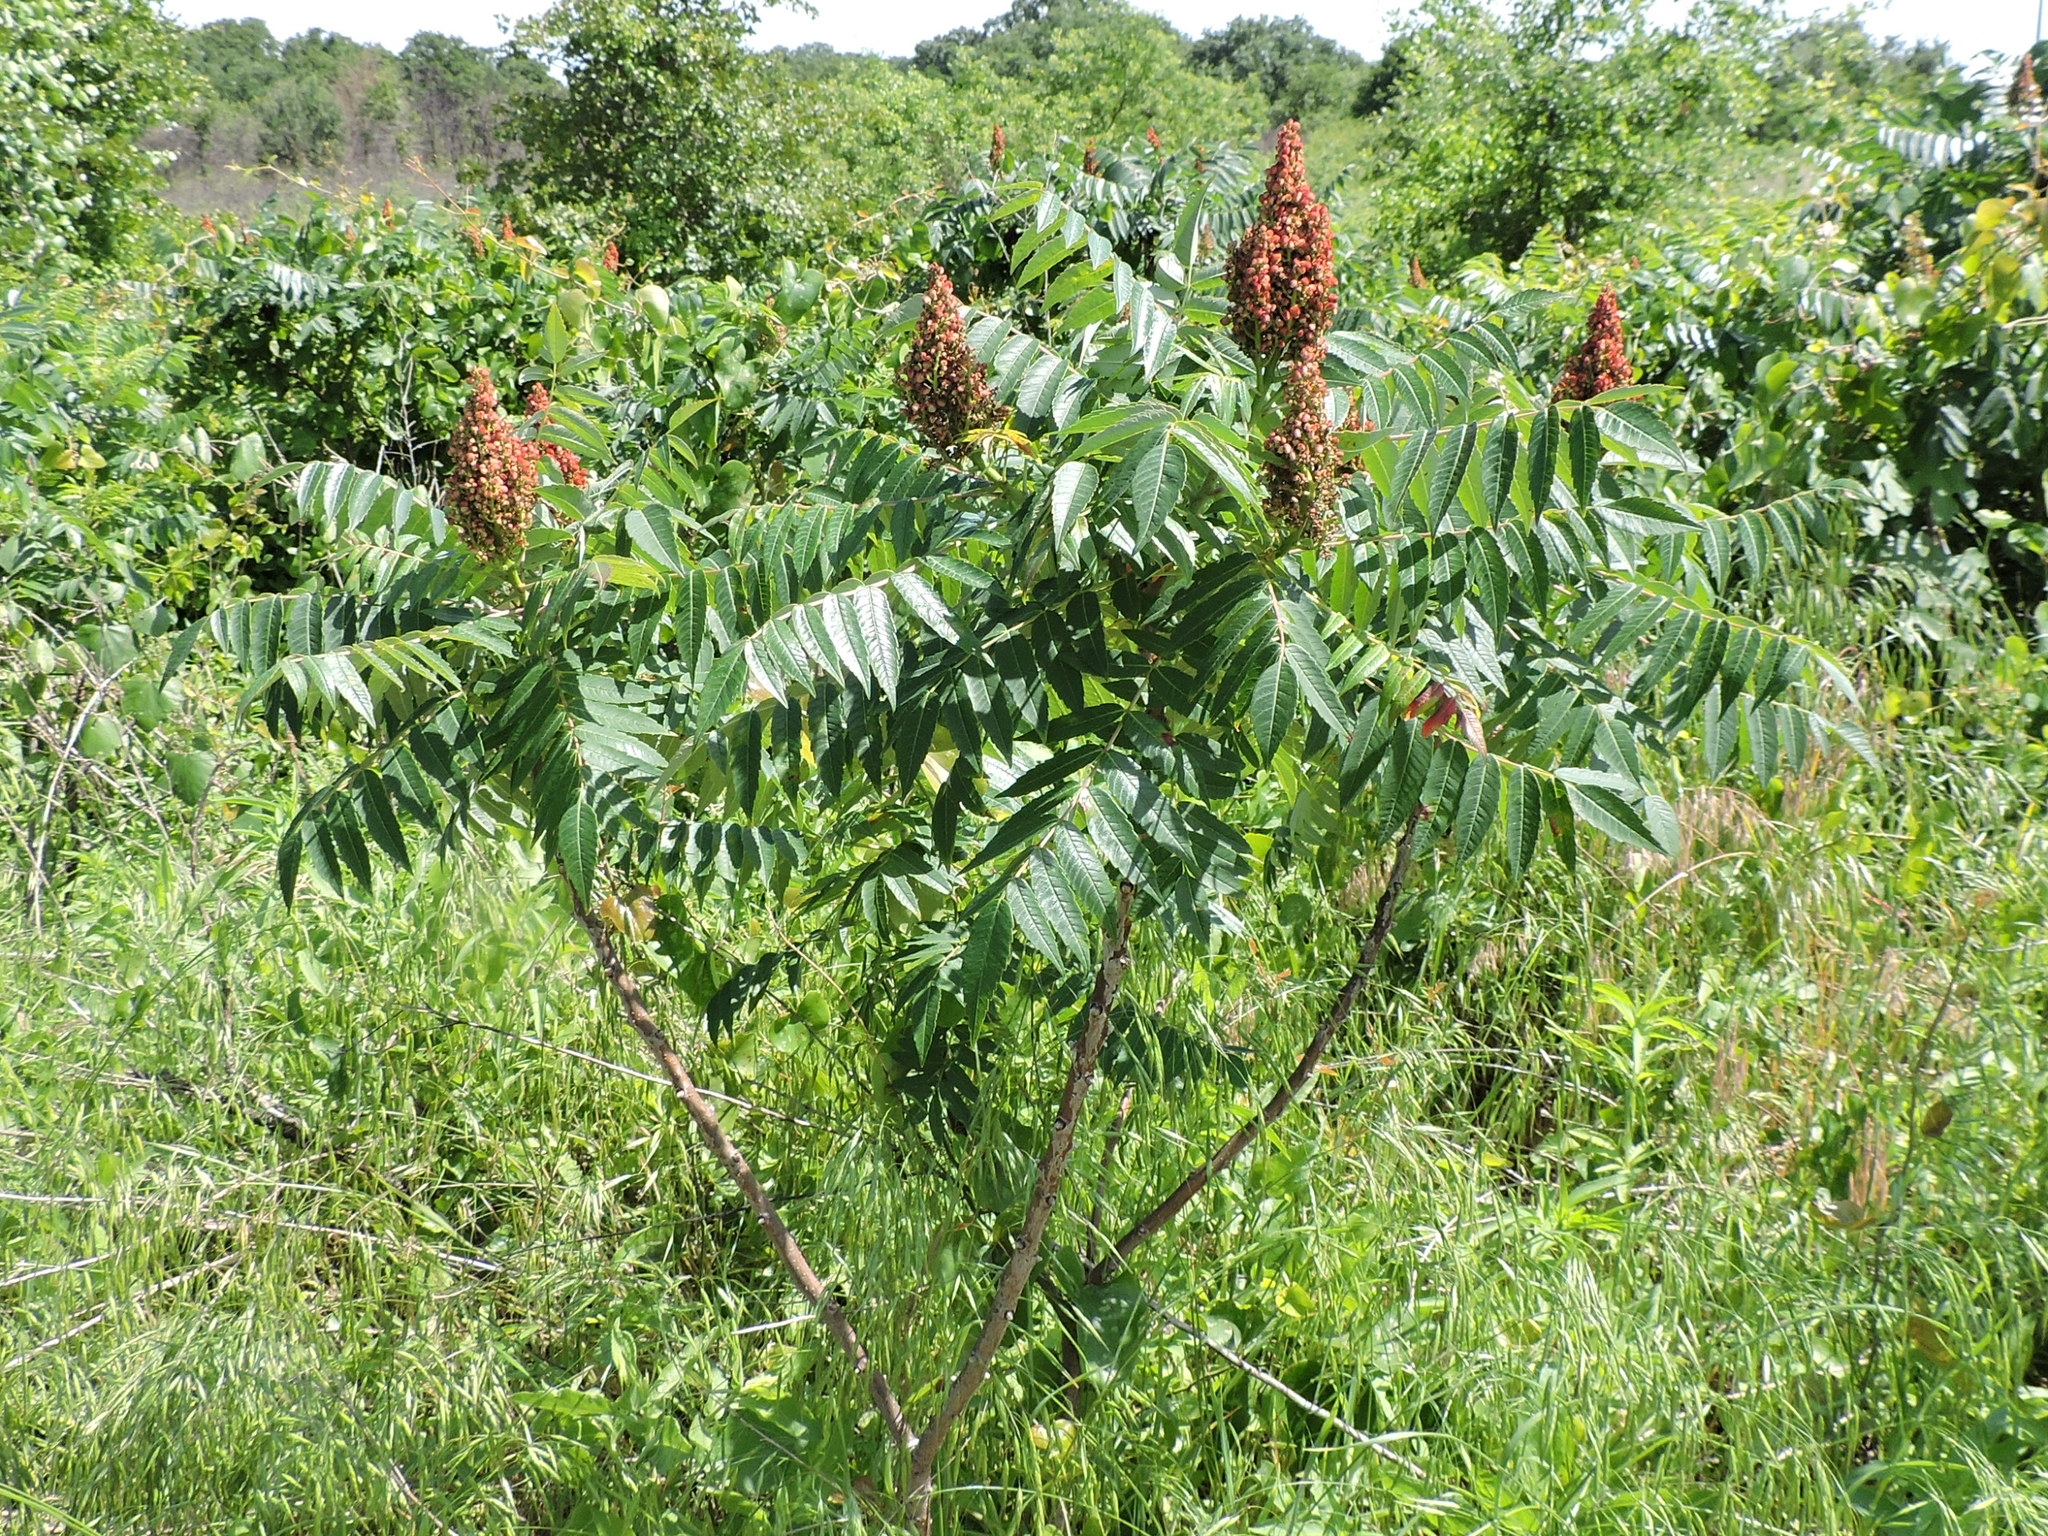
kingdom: Plantae
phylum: Tracheophyta
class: Magnoliopsida
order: Sapindales
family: Anacardiaceae
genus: Rhus
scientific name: Rhus glabra
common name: Scarlet sumac
